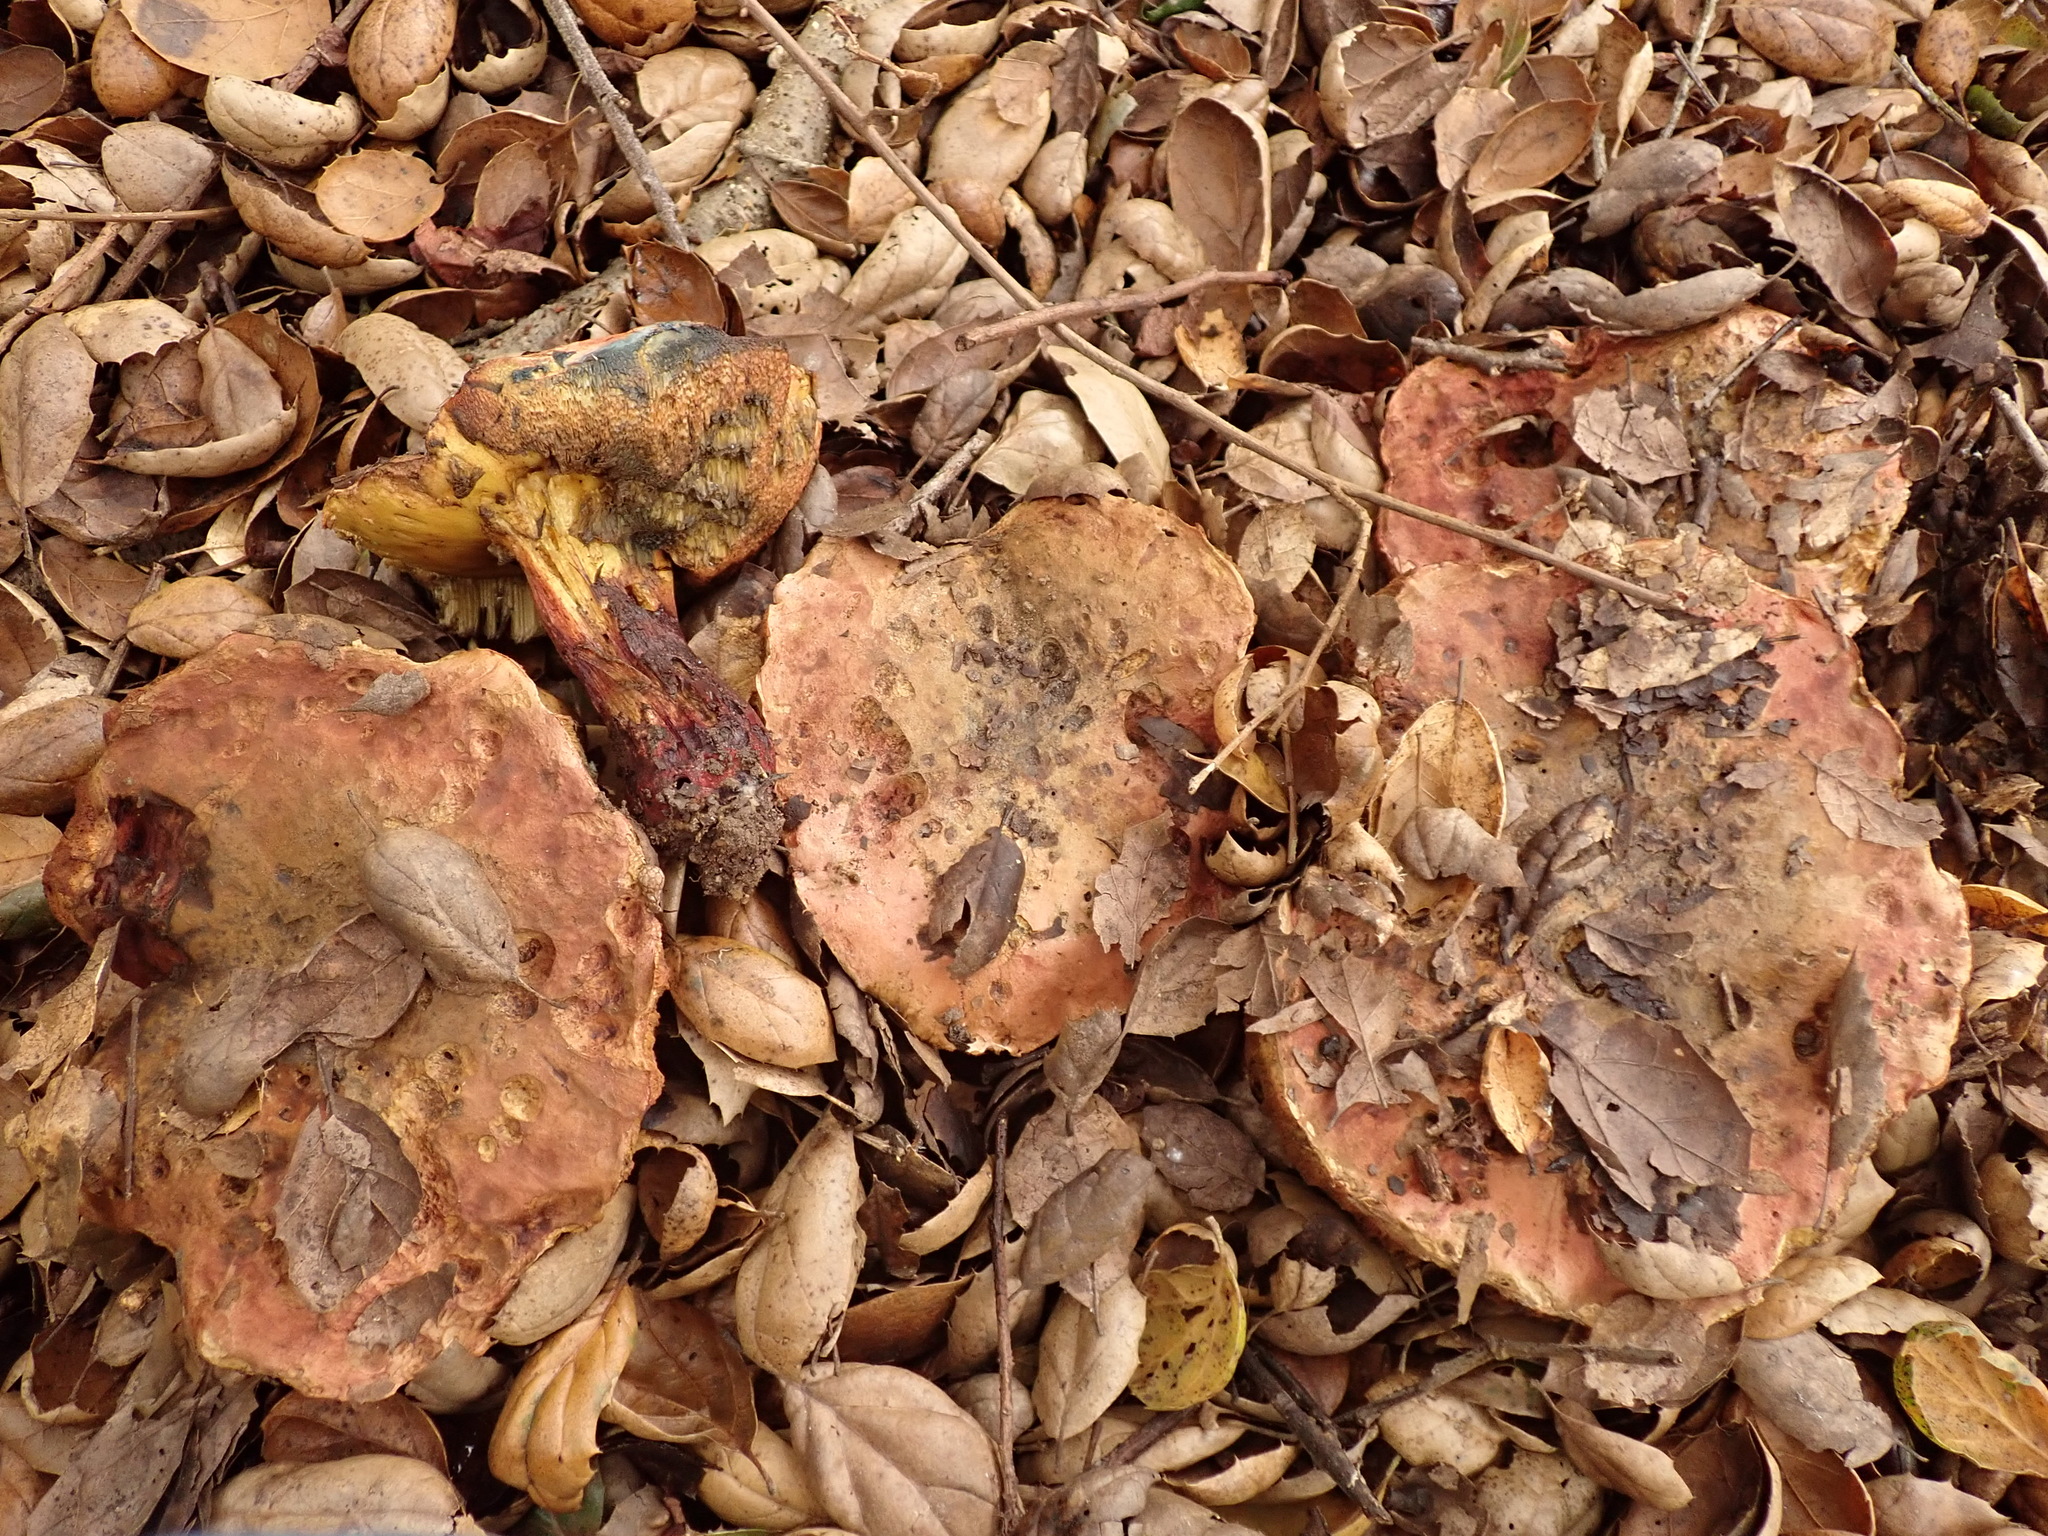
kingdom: Fungi
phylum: Basidiomycota
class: Agaricomycetes
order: Boletales
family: Boletaceae
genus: Suillellus
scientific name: Suillellus amygdalinus
